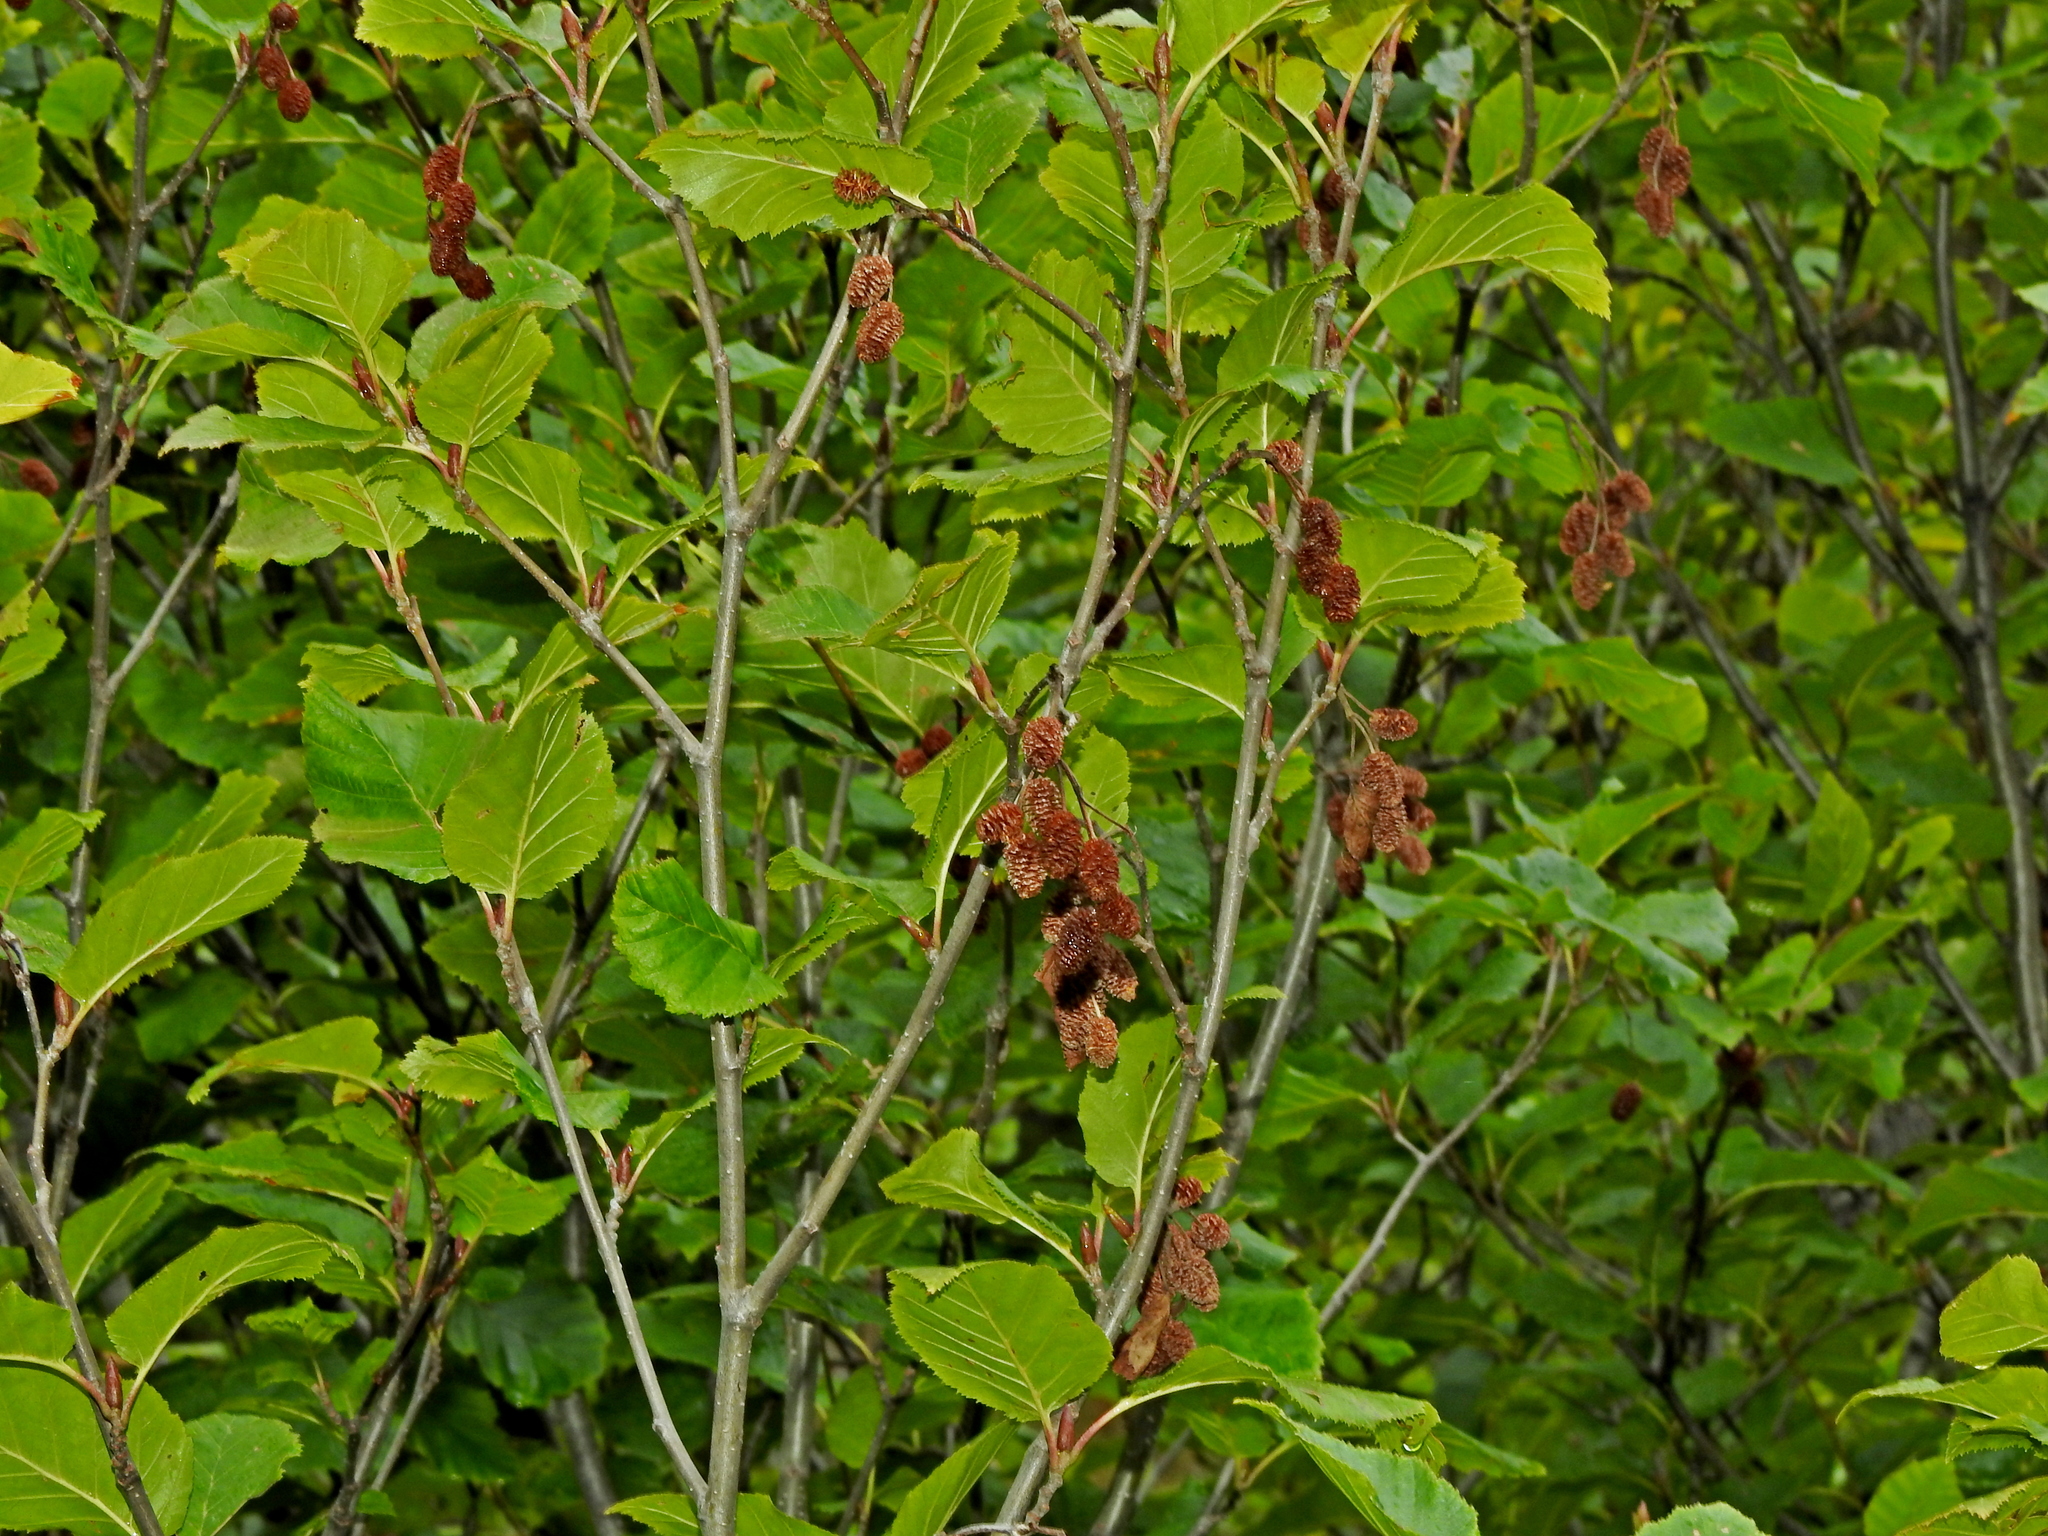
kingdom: Plantae
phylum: Tracheophyta
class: Magnoliopsida
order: Fagales
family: Betulaceae
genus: Alnus
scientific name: Alnus alnobetula
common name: Green alder
